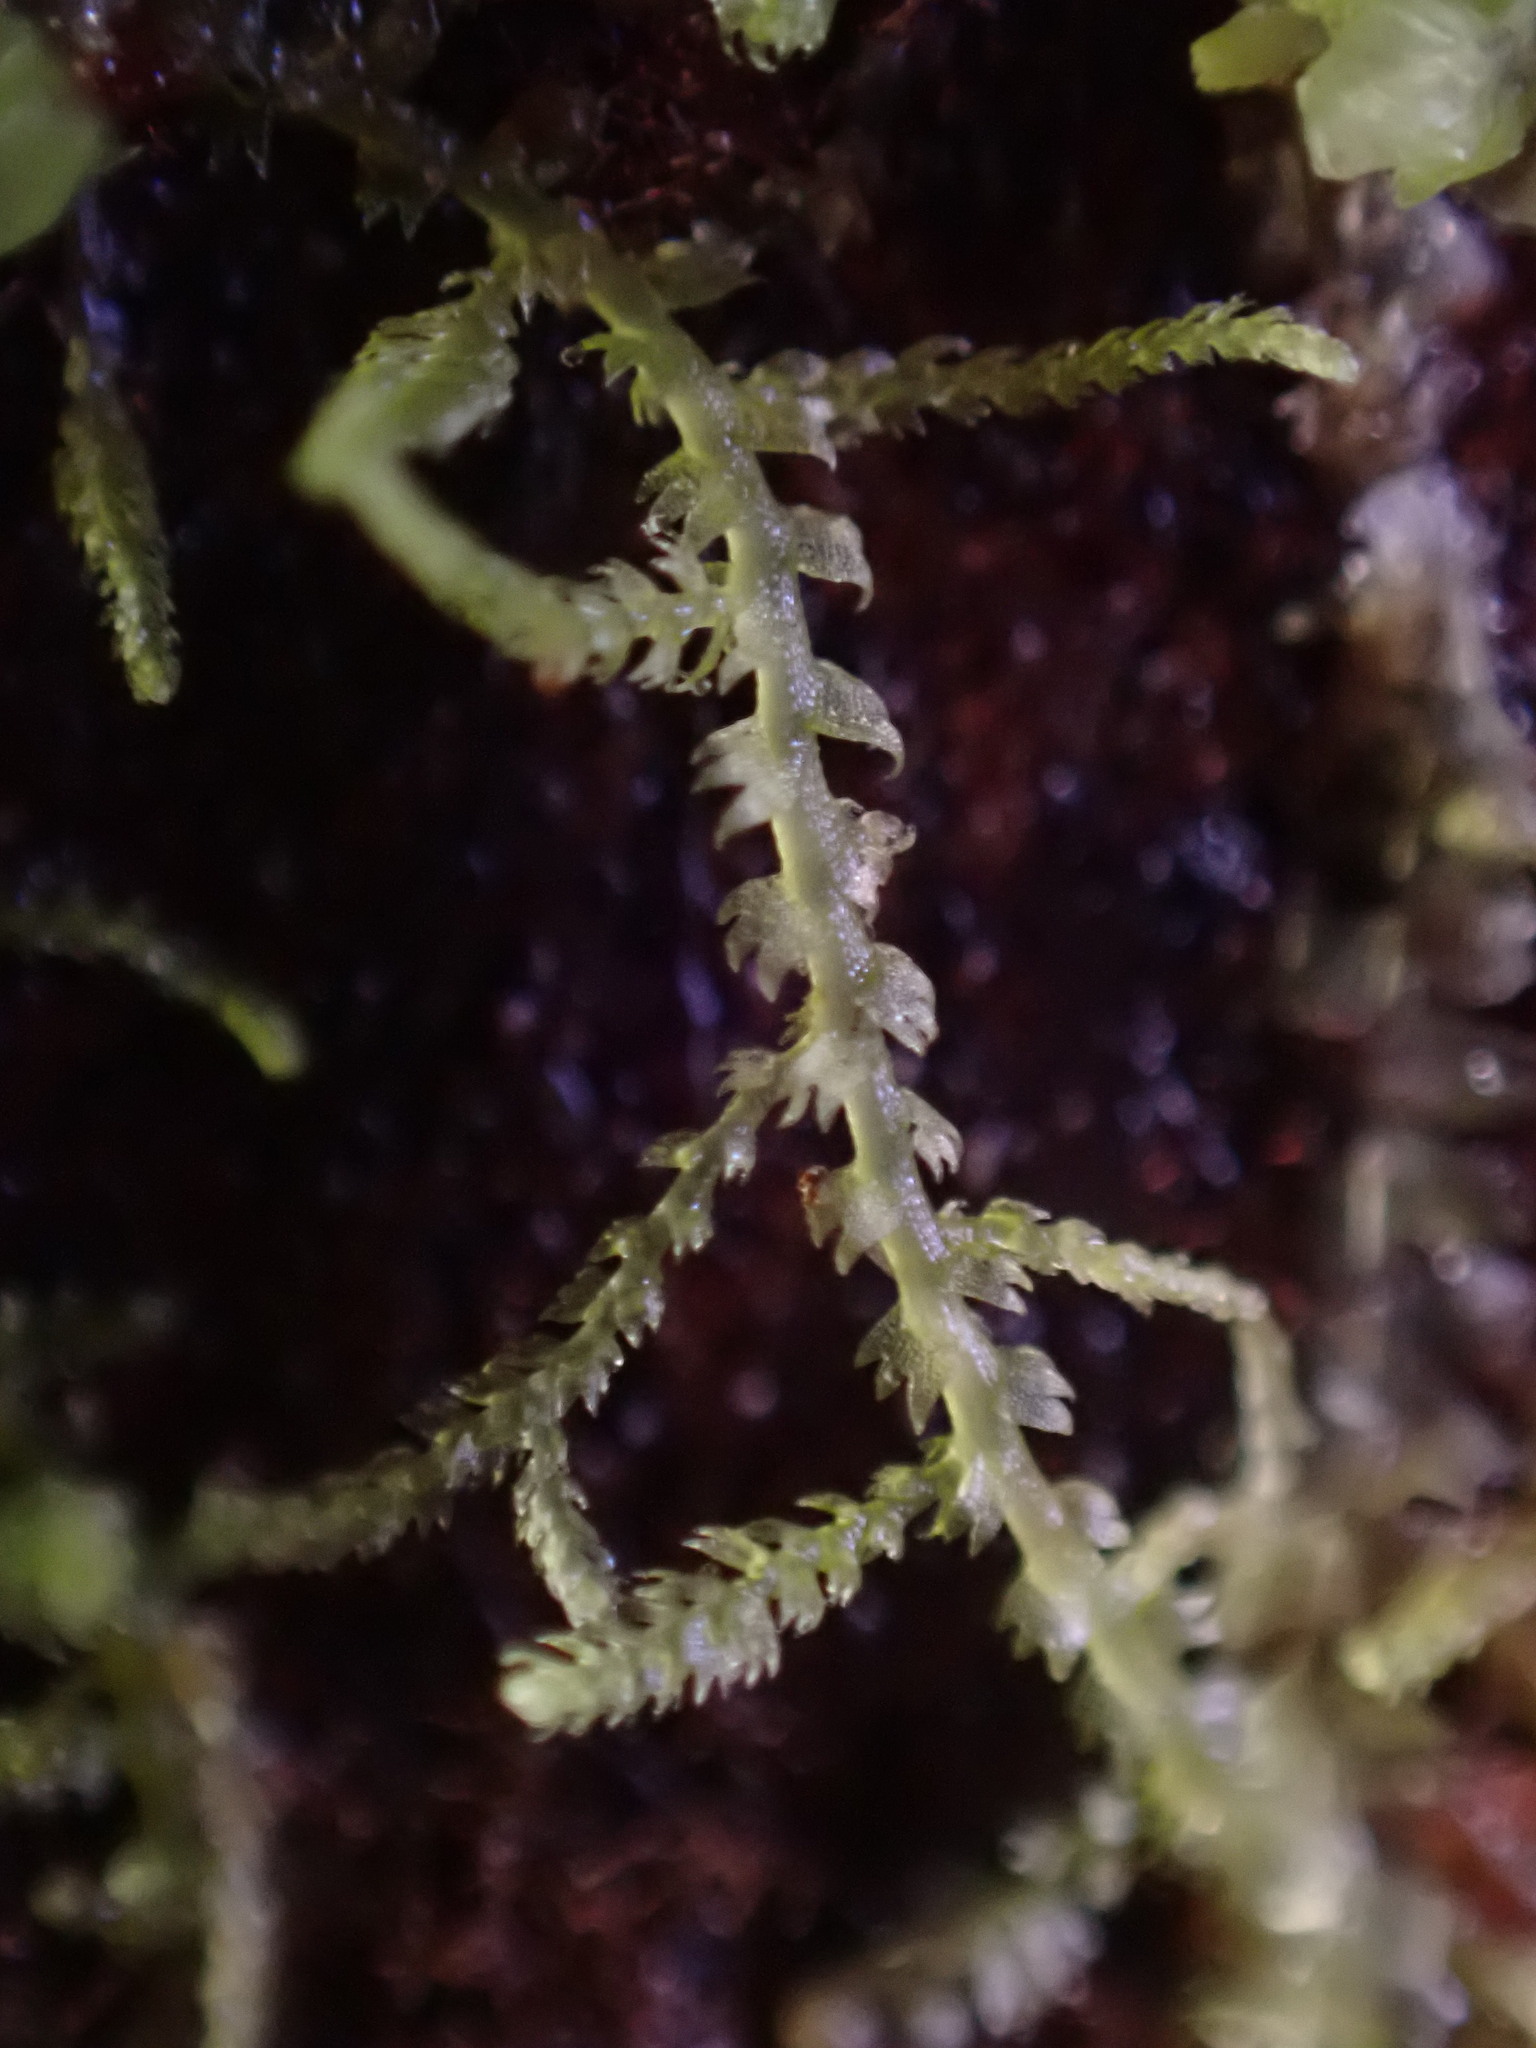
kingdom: Plantae
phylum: Marchantiophyta
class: Jungermanniopsida
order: Jungermanniales
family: Lepidoziaceae
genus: Lepidozia
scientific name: Lepidozia reptans
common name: Creeping fingerwort
